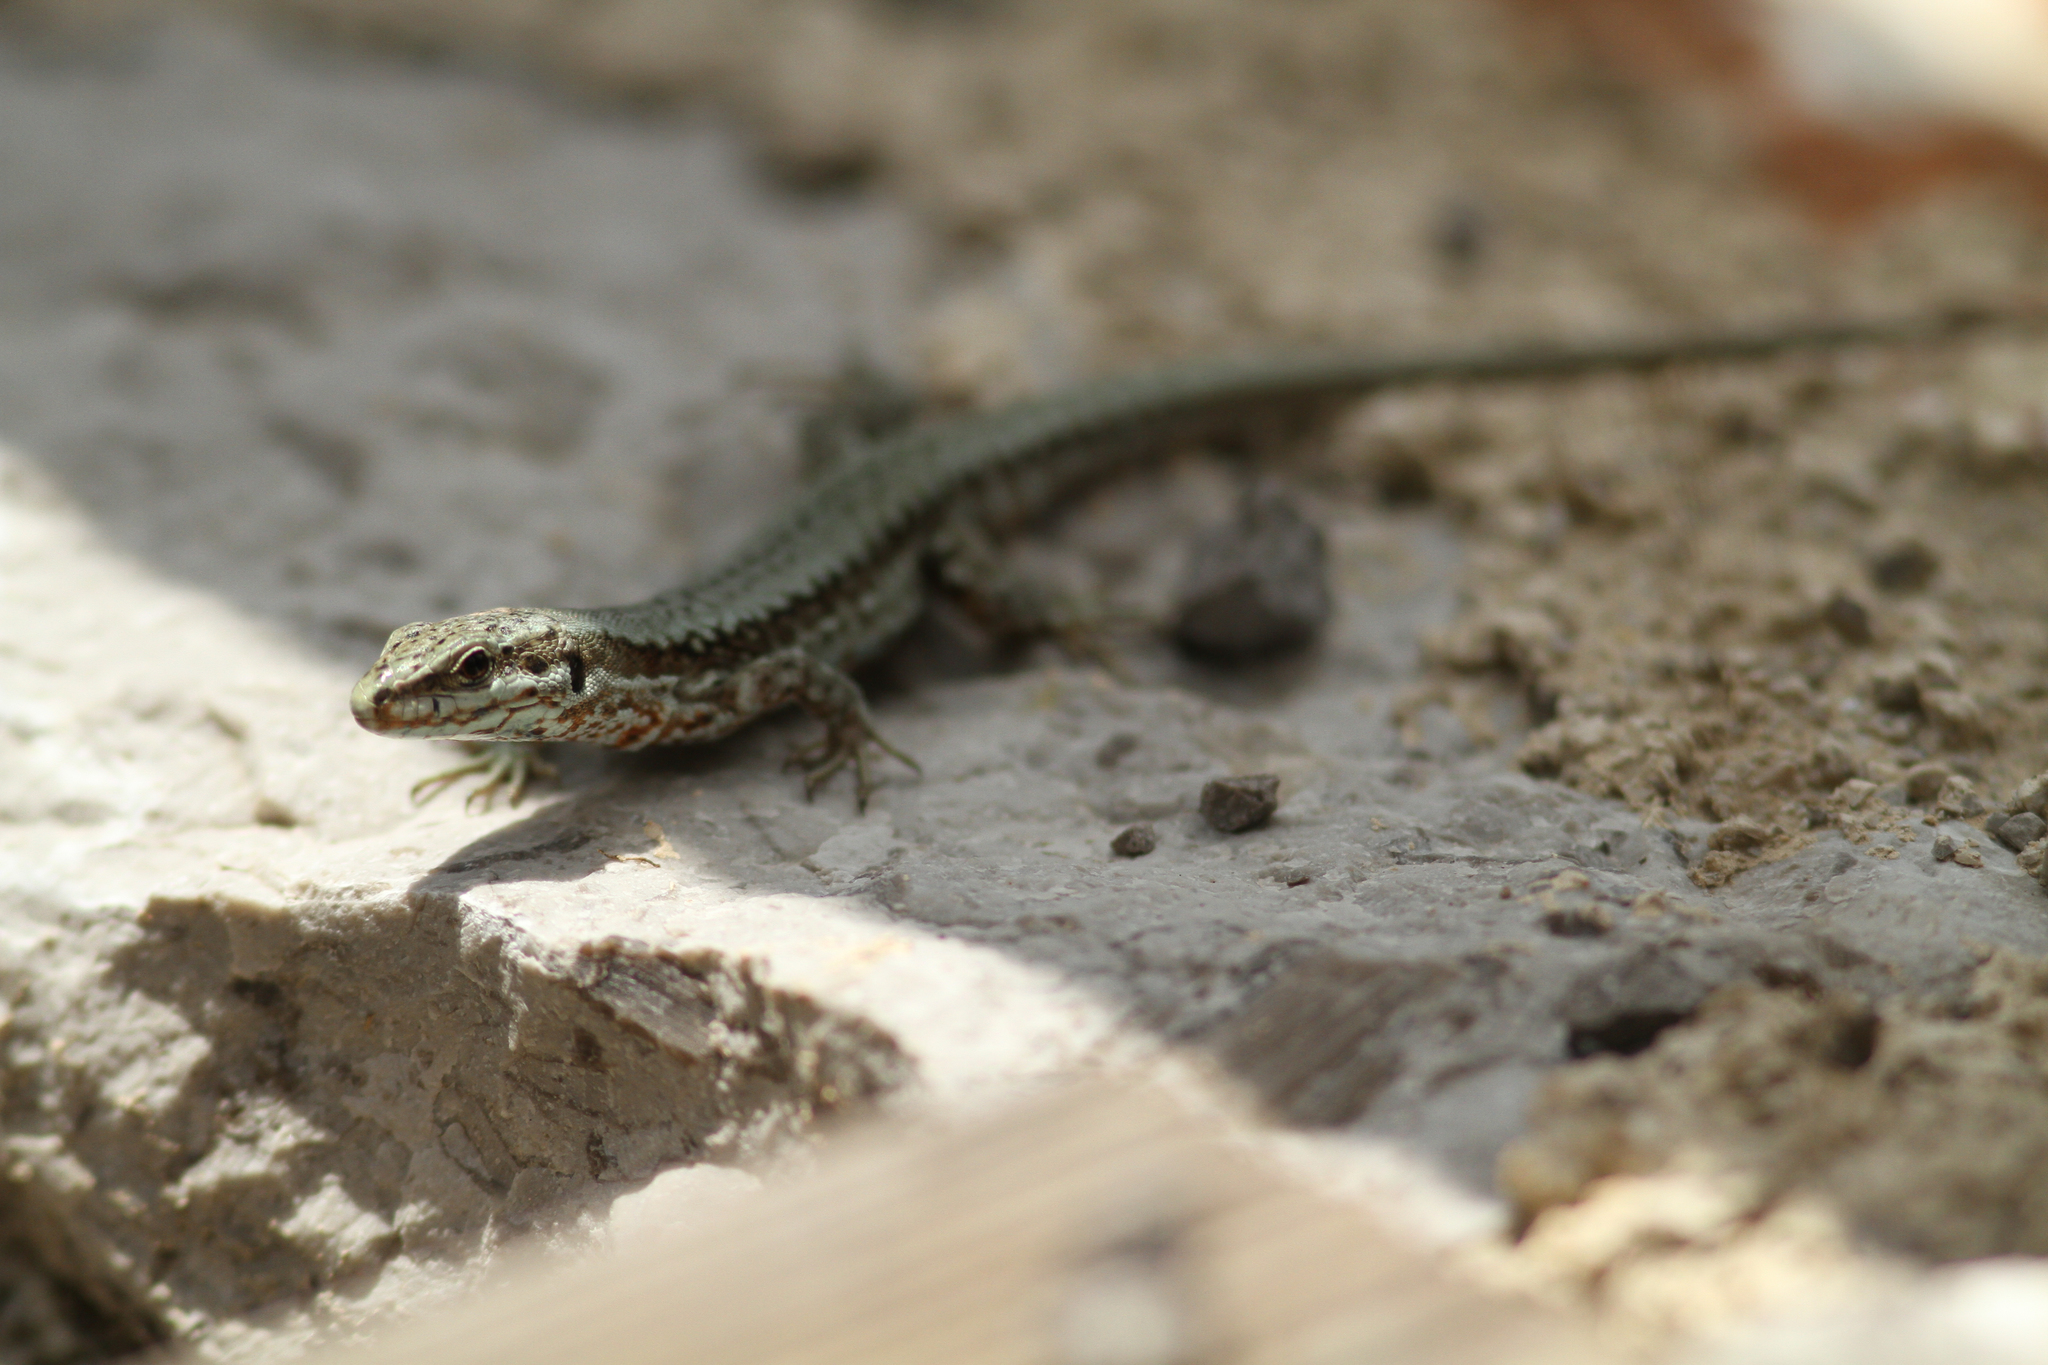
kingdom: Animalia
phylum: Chordata
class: Squamata
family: Lacertidae
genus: Podarcis
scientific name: Podarcis muralis
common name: Common wall lizard
